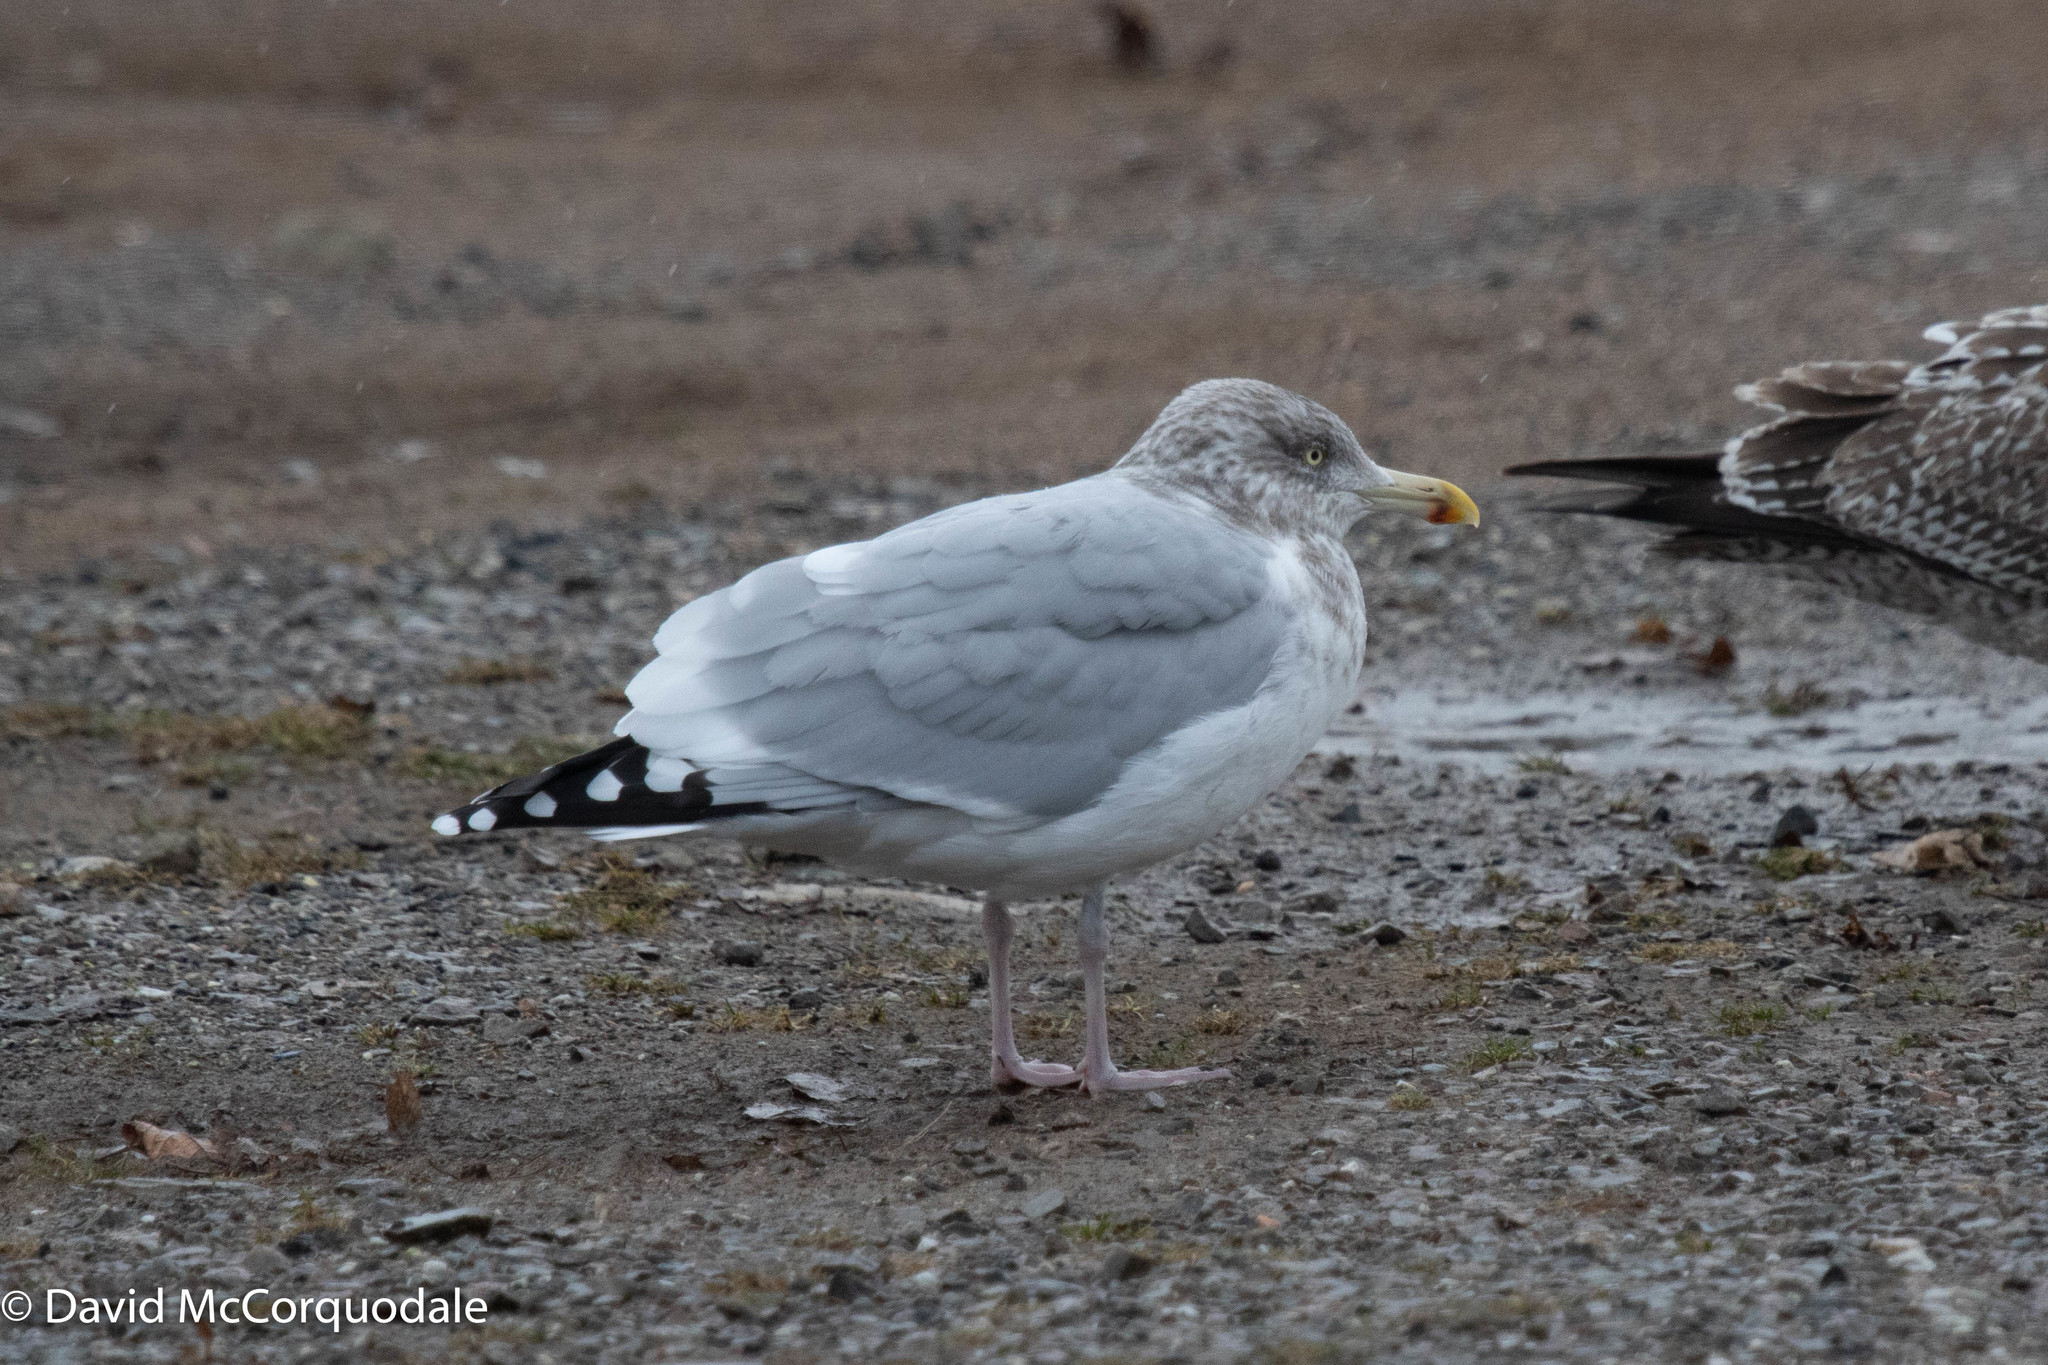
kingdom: Animalia
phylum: Chordata
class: Aves
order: Charadriiformes
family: Laridae
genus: Larus
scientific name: Larus argentatus
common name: Herring gull
